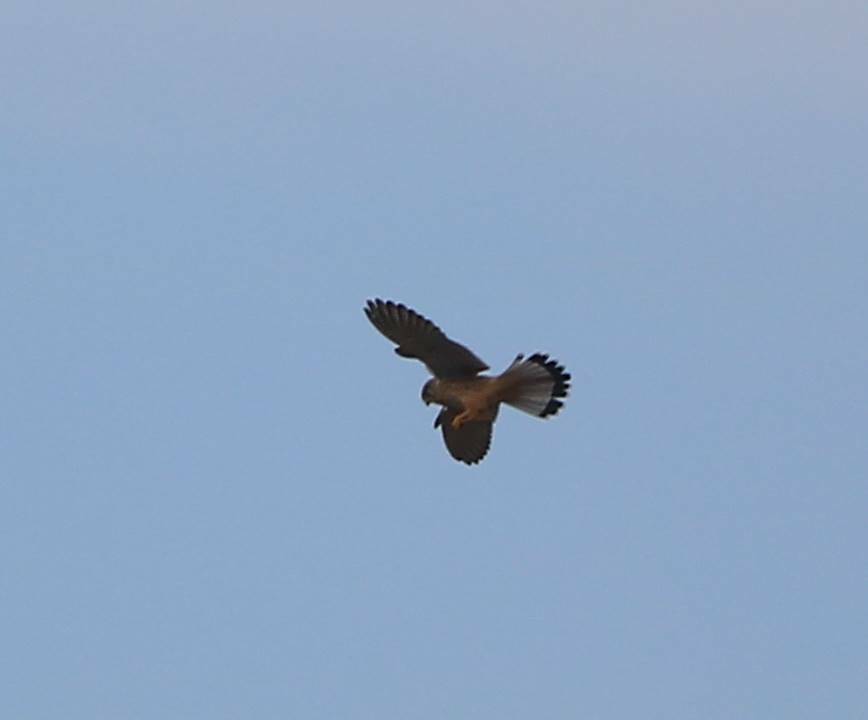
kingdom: Animalia
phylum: Chordata
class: Aves
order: Falconiformes
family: Falconidae
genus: Falco
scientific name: Falco tinnunculus
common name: Common kestrel
